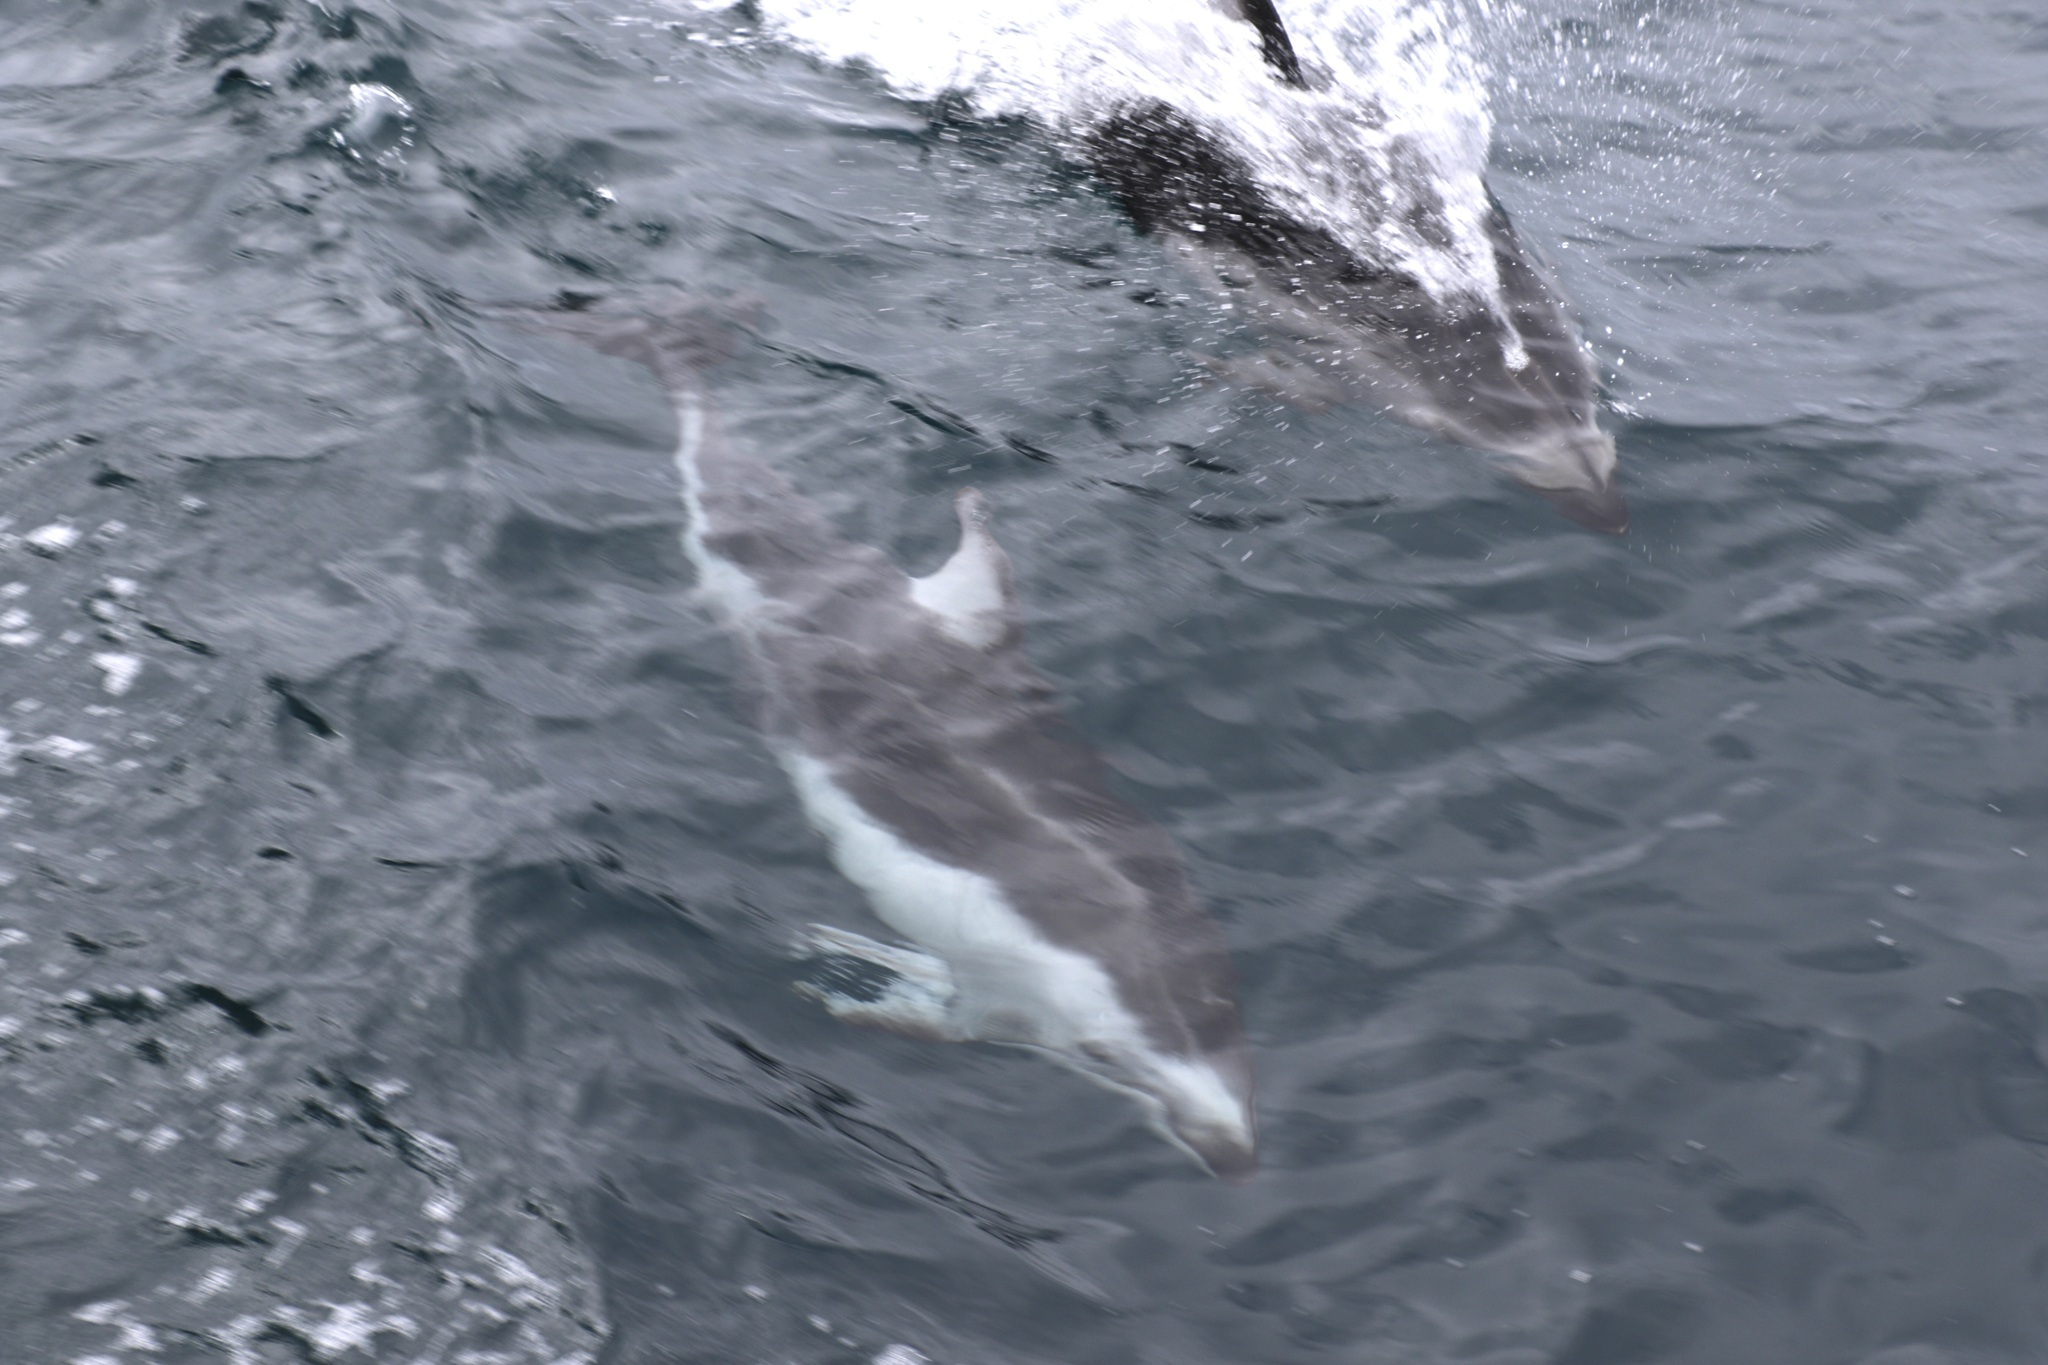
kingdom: Animalia
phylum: Chordata
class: Mammalia
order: Cetacea
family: Delphinidae
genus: Lagenorhynchus
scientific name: Lagenorhynchus obliquidens
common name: Pacific white-sided dolphin
